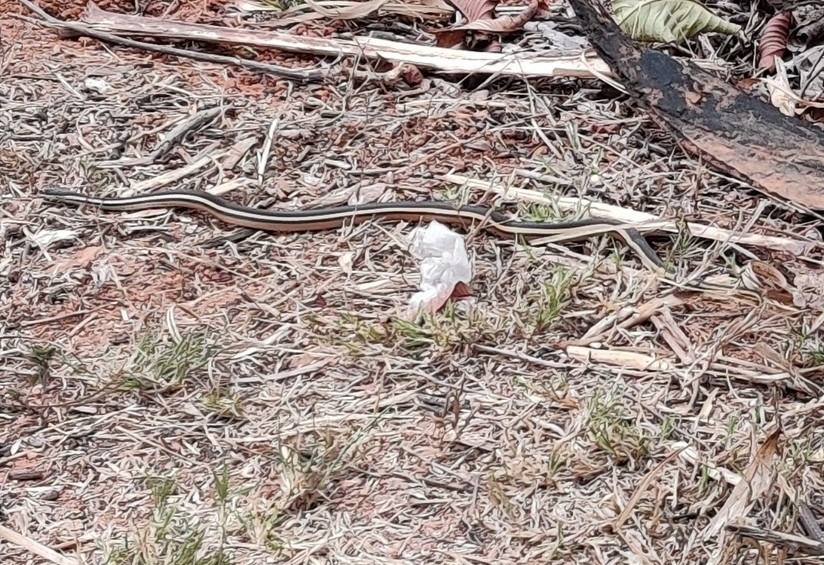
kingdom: Animalia
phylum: Chordata
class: Squamata
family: Pseudoxyrhophiidae
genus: Thamnosophis
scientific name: Thamnosophis lateralis
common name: Lateral water snake
